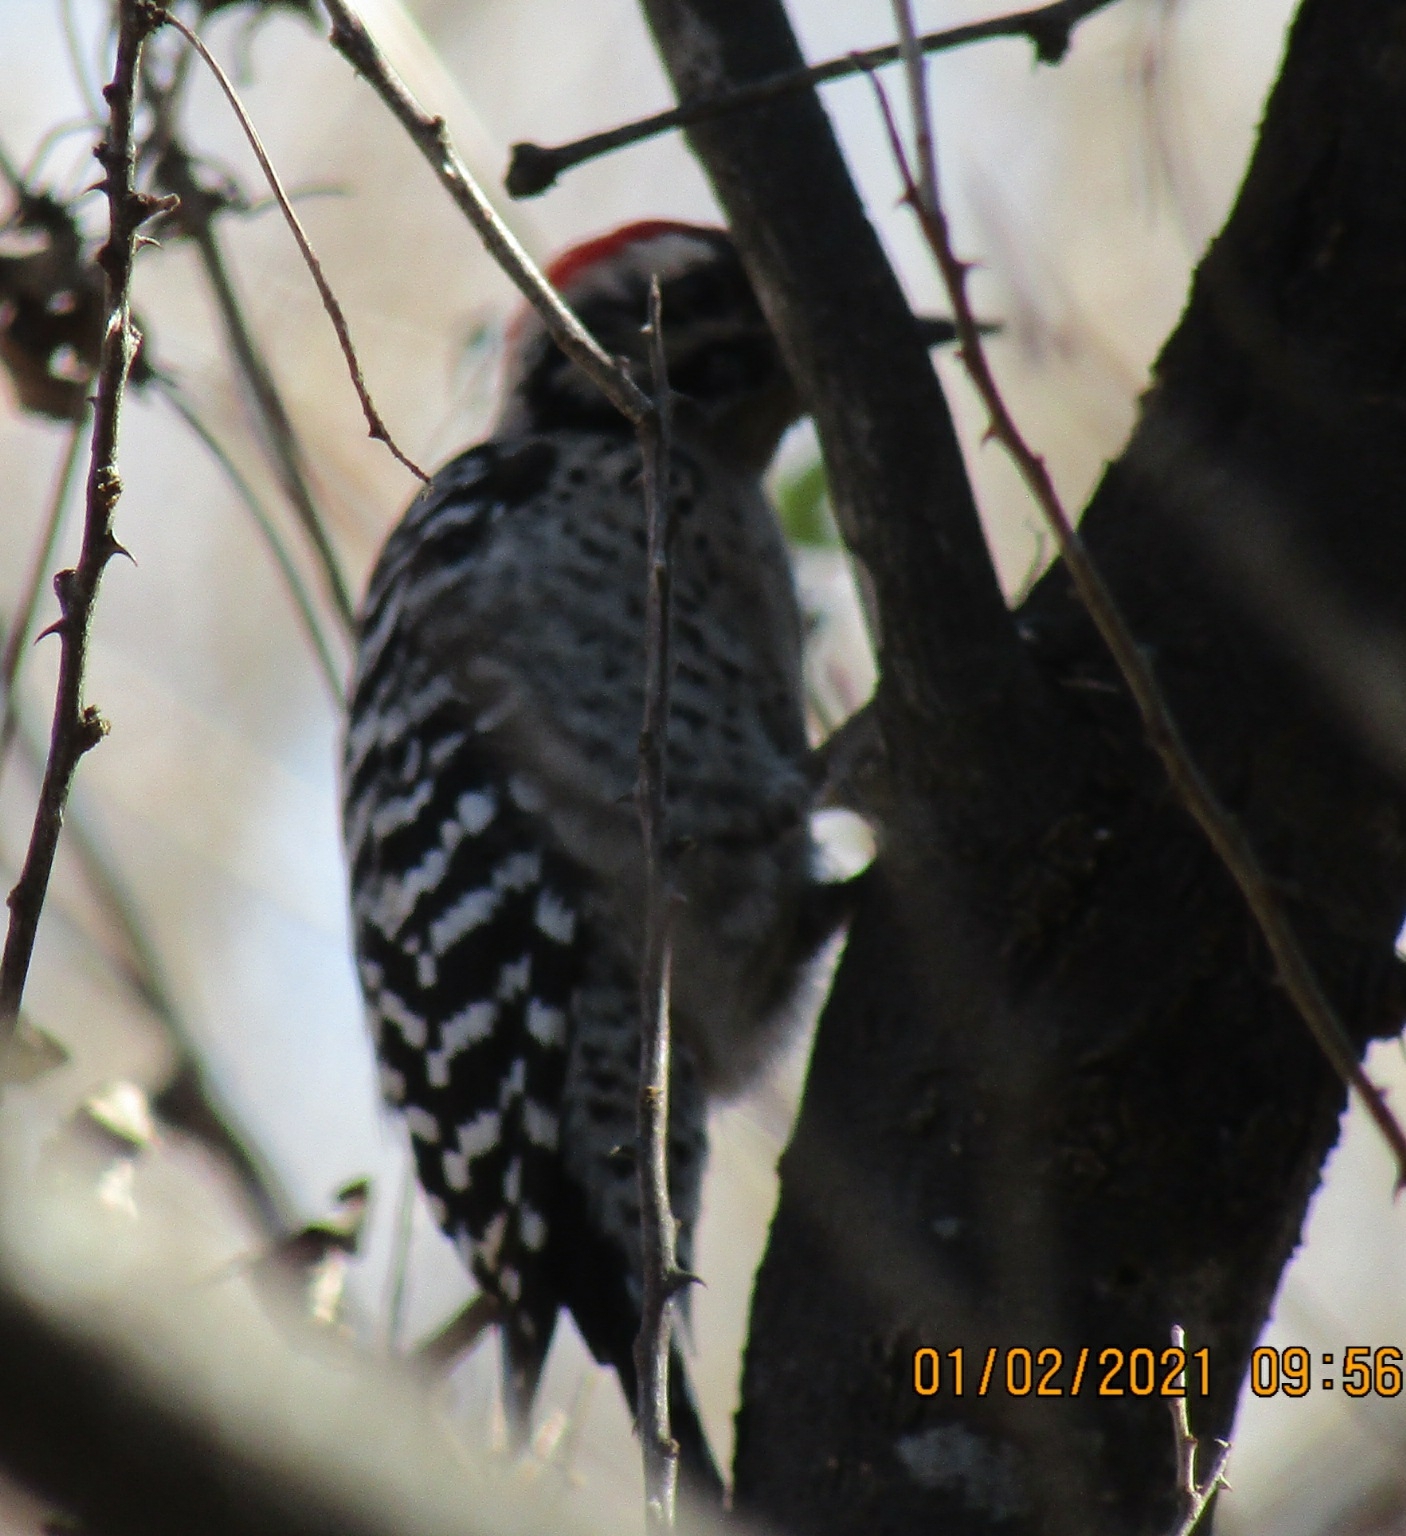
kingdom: Animalia
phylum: Chordata
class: Aves
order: Piciformes
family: Picidae
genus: Dryobates
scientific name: Dryobates scalaris
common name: Ladder-backed woodpecker
